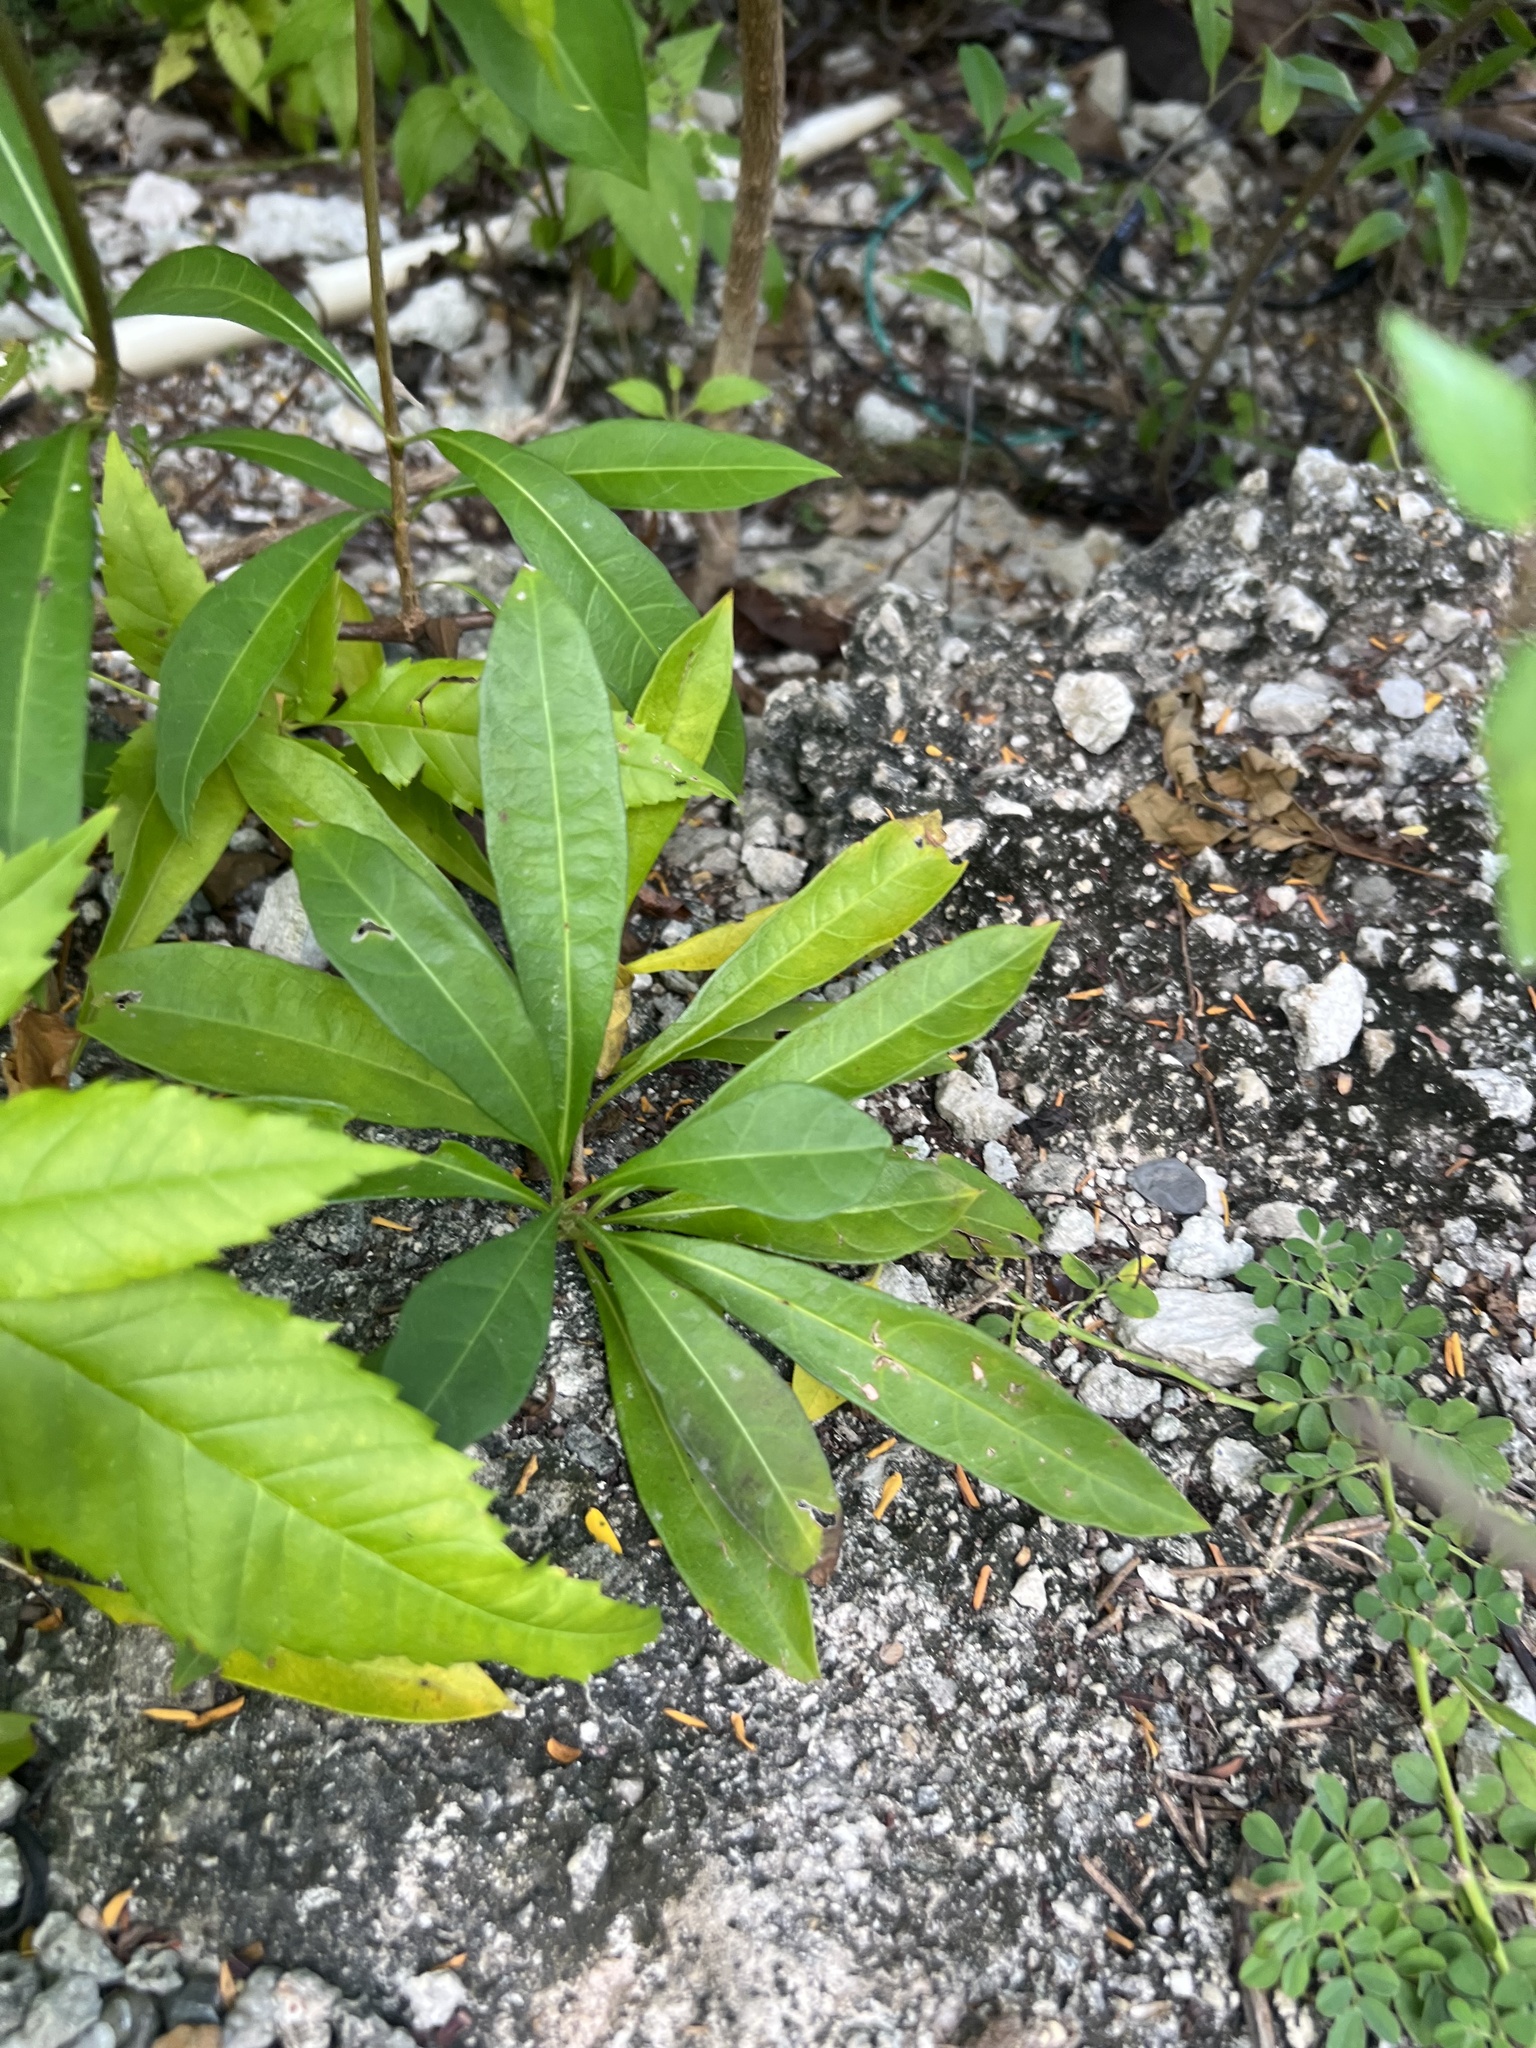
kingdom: Plantae
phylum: Tracheophyta
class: Magnoliopsida
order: Gentianales
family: Rubiaceae
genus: Morinda
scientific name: Morinda royoc
